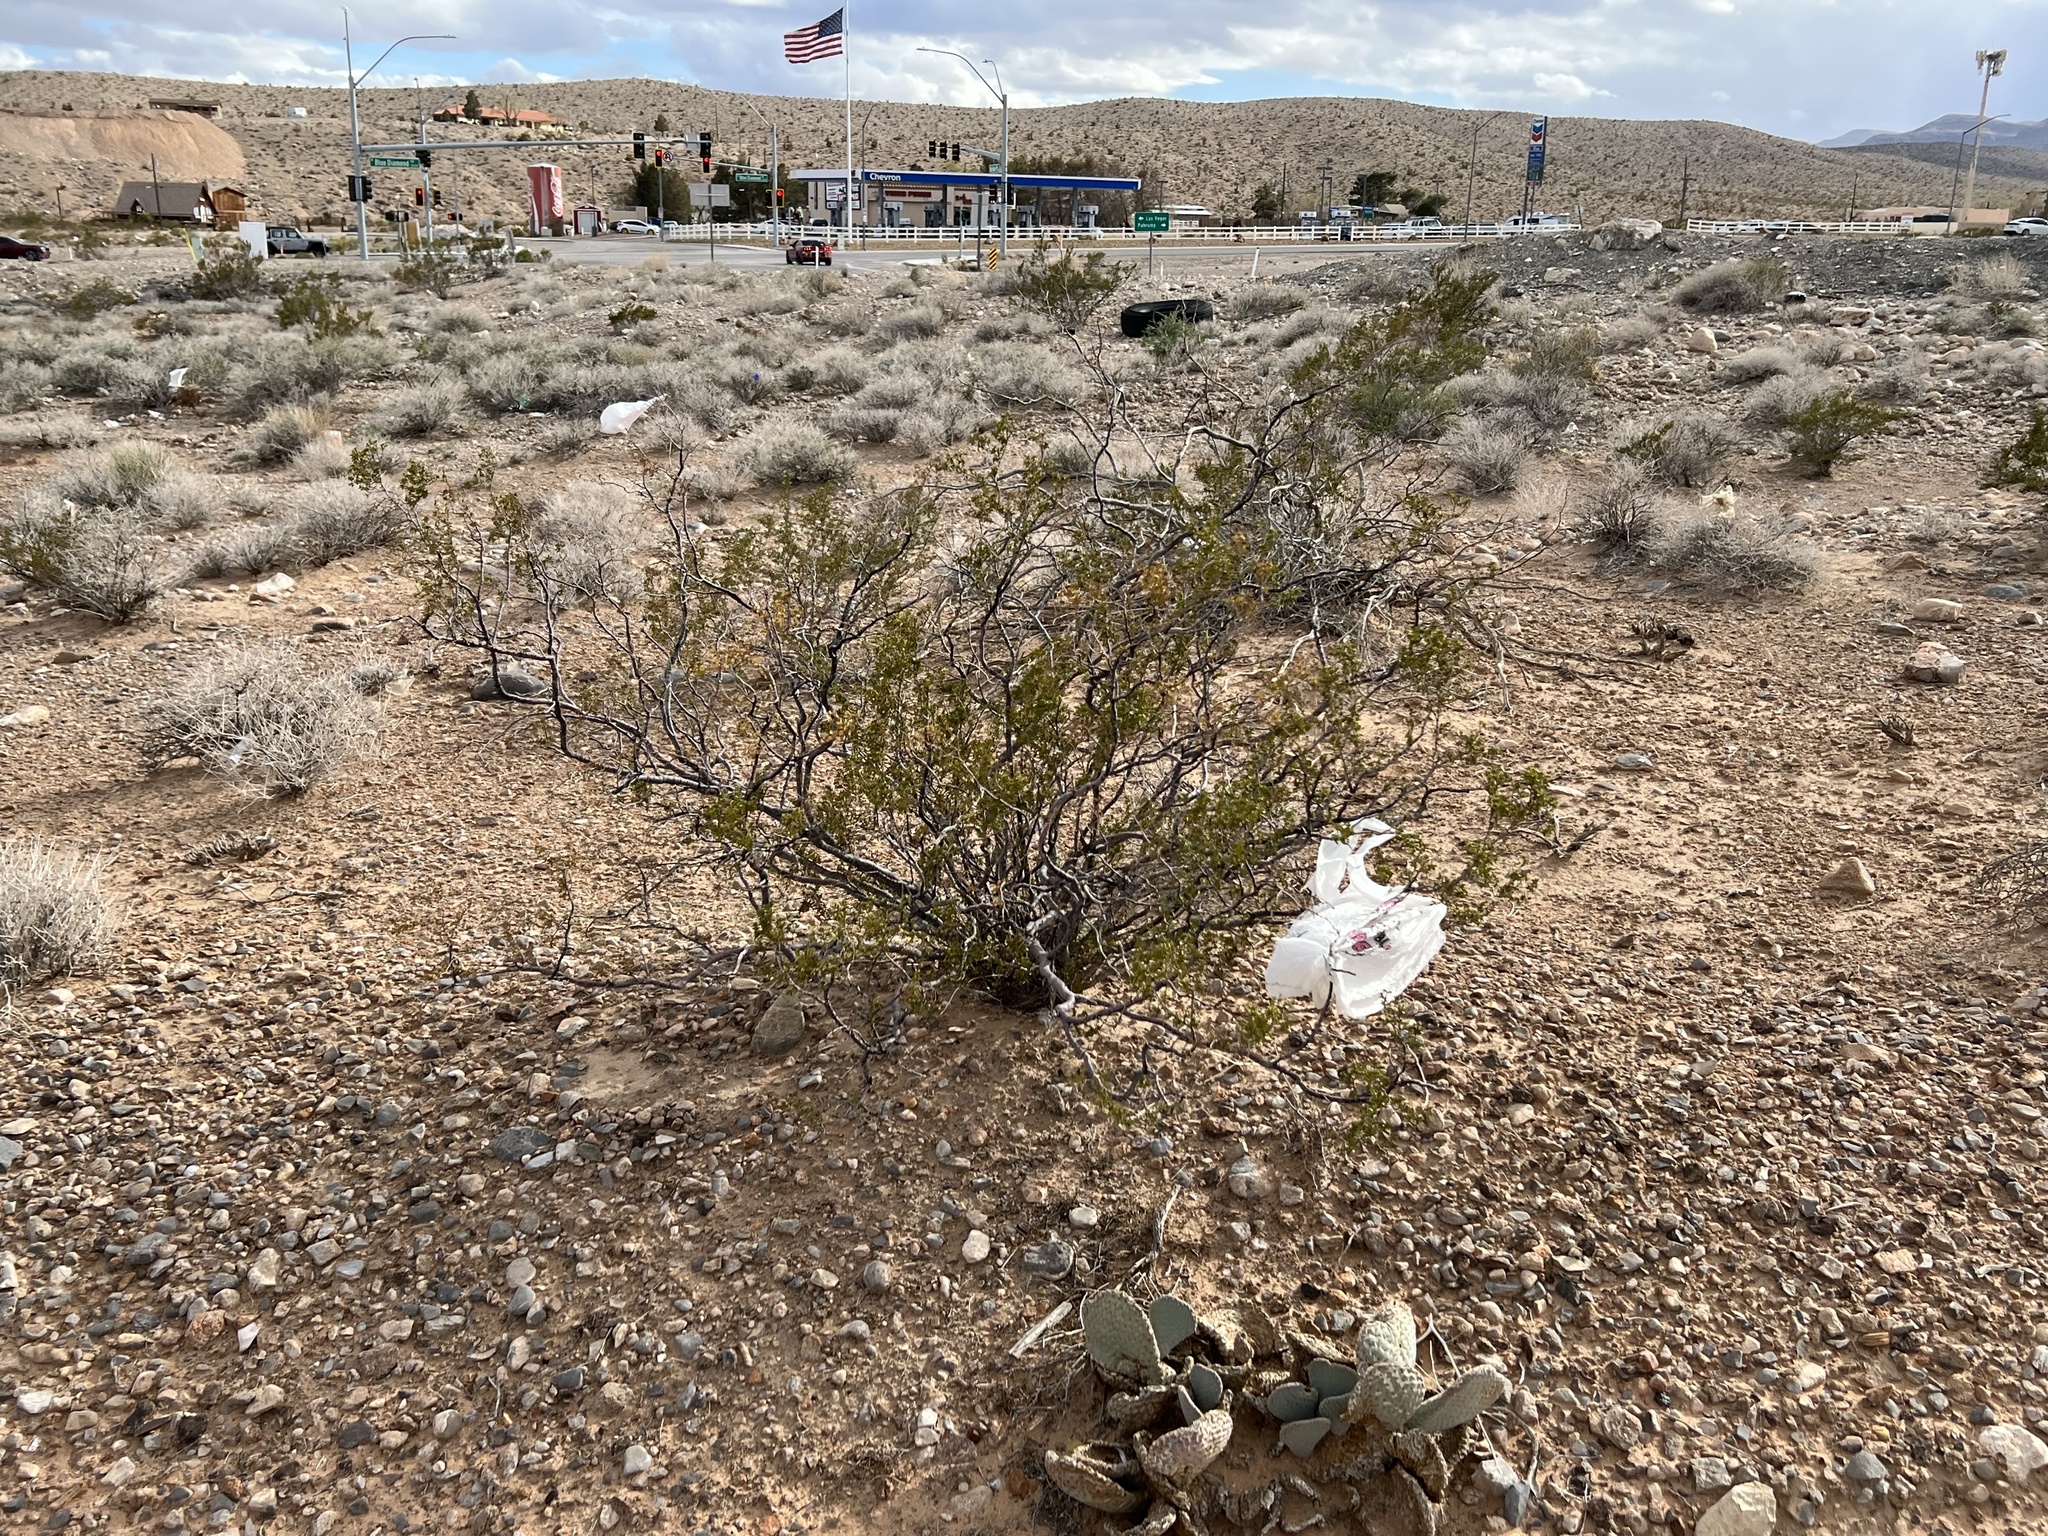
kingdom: Plantae
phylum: Tracheophyta
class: Magnoliopsida
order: Zygophyllales
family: Zygophyllaceae
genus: Larrea
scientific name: Larrea tridentata
